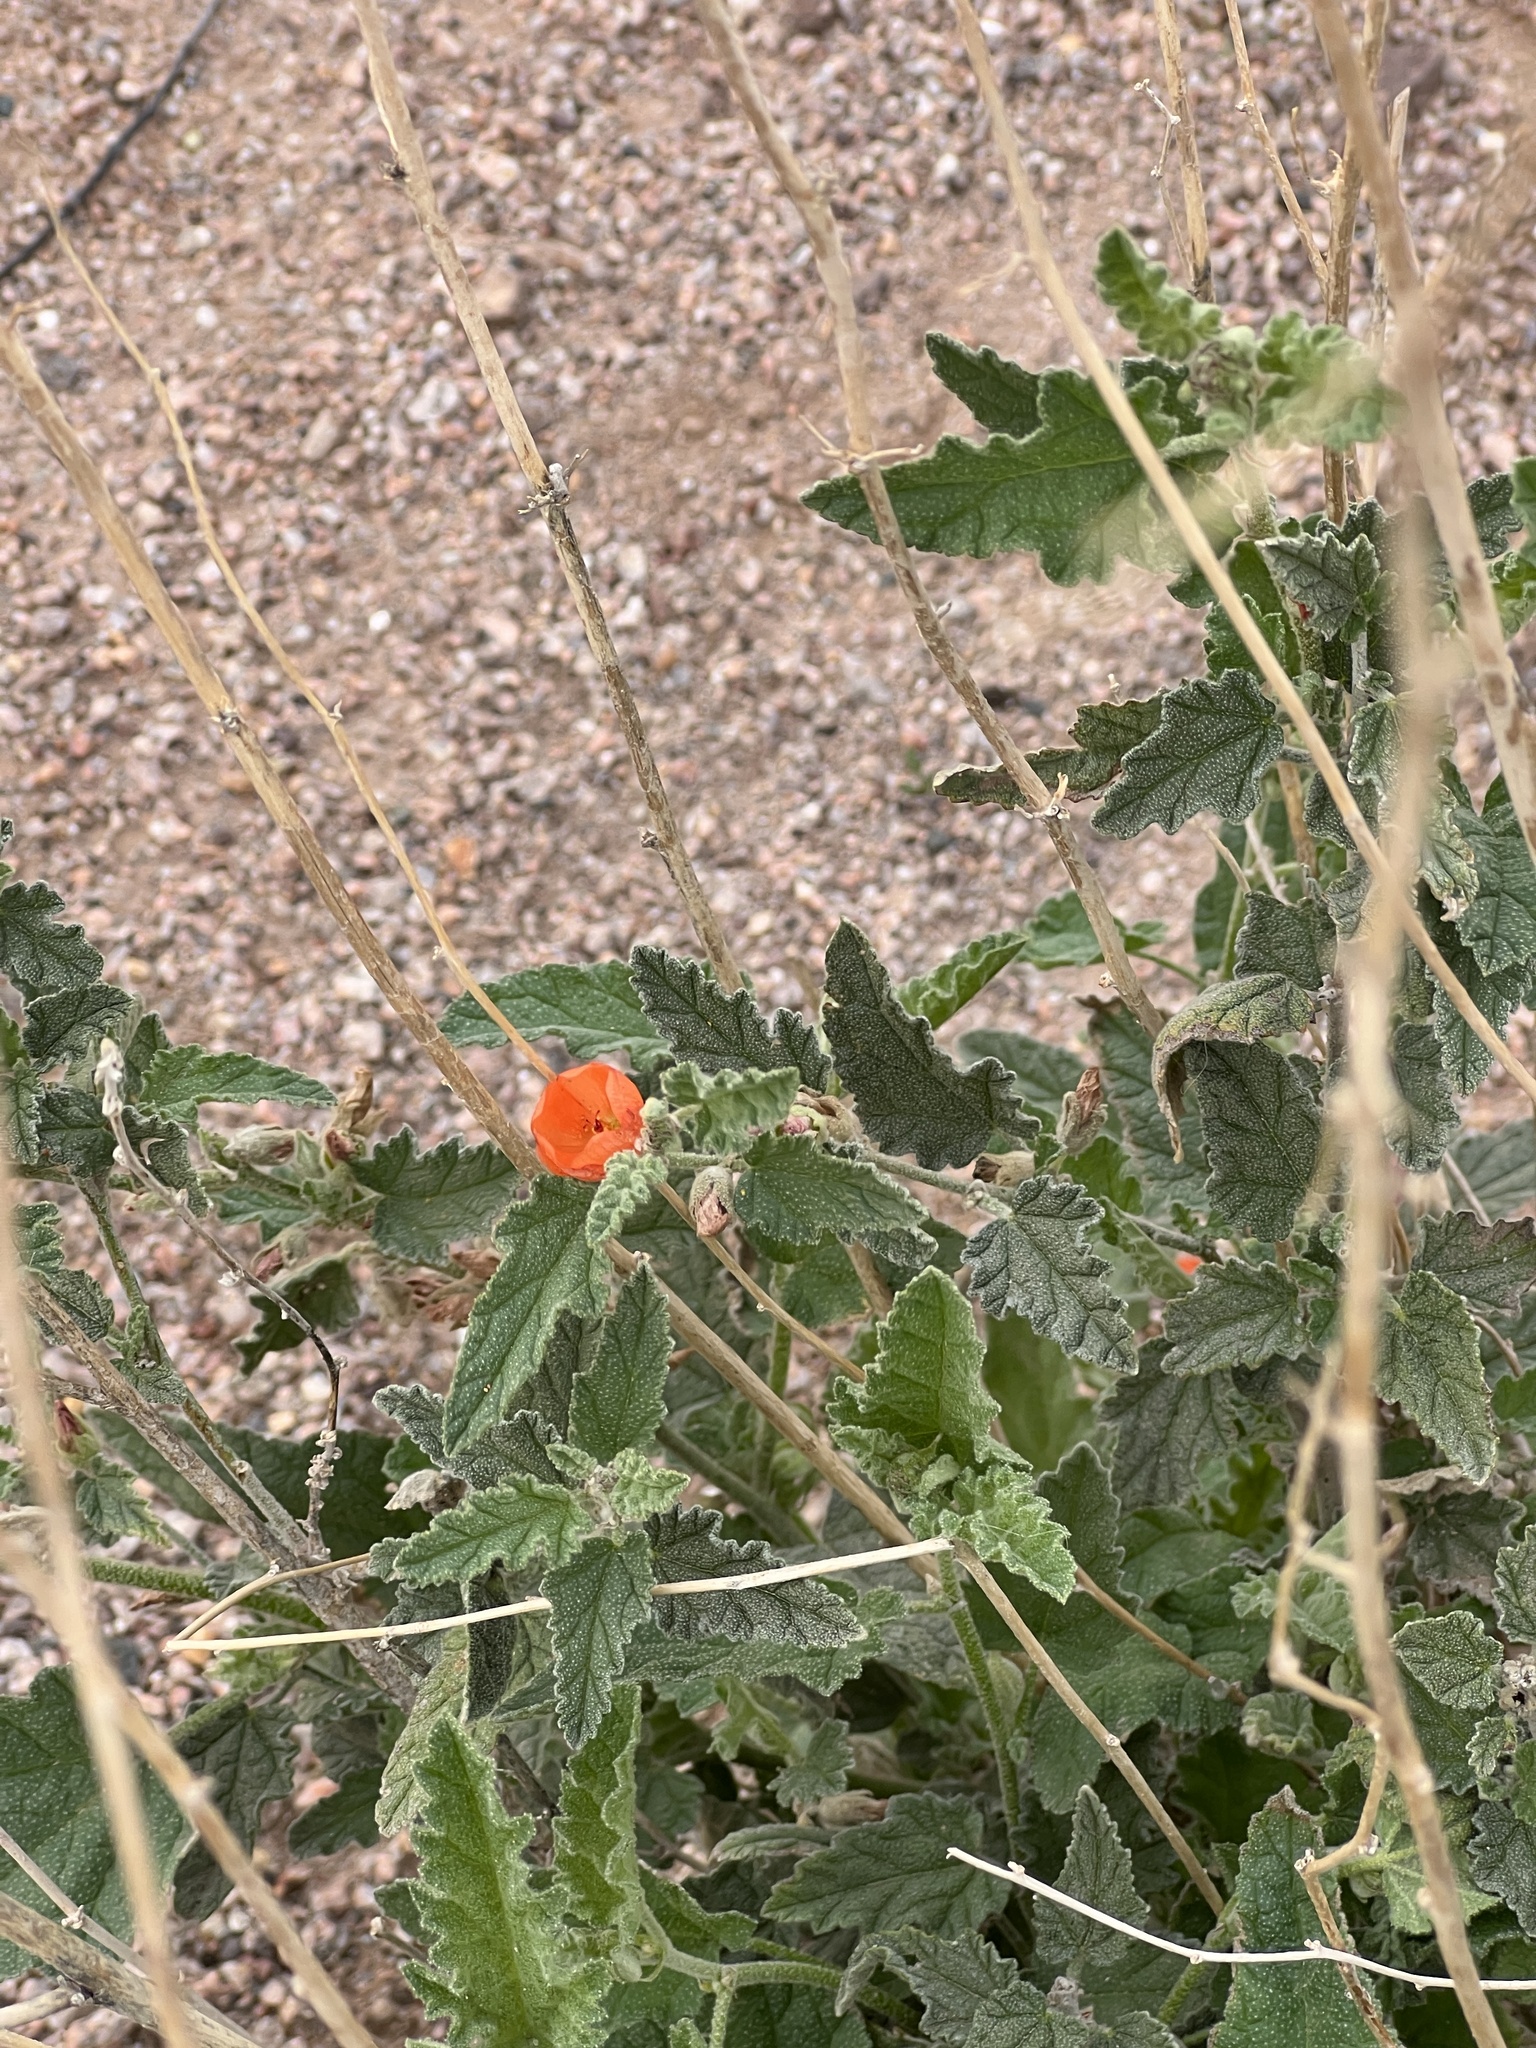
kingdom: Plantae
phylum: Tracheophyta
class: Magnoliopsida
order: Malvales
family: Malvaceae
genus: Sphaeralcea
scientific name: Sphaeralcea ambigua
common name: Apricot globe-mallow
